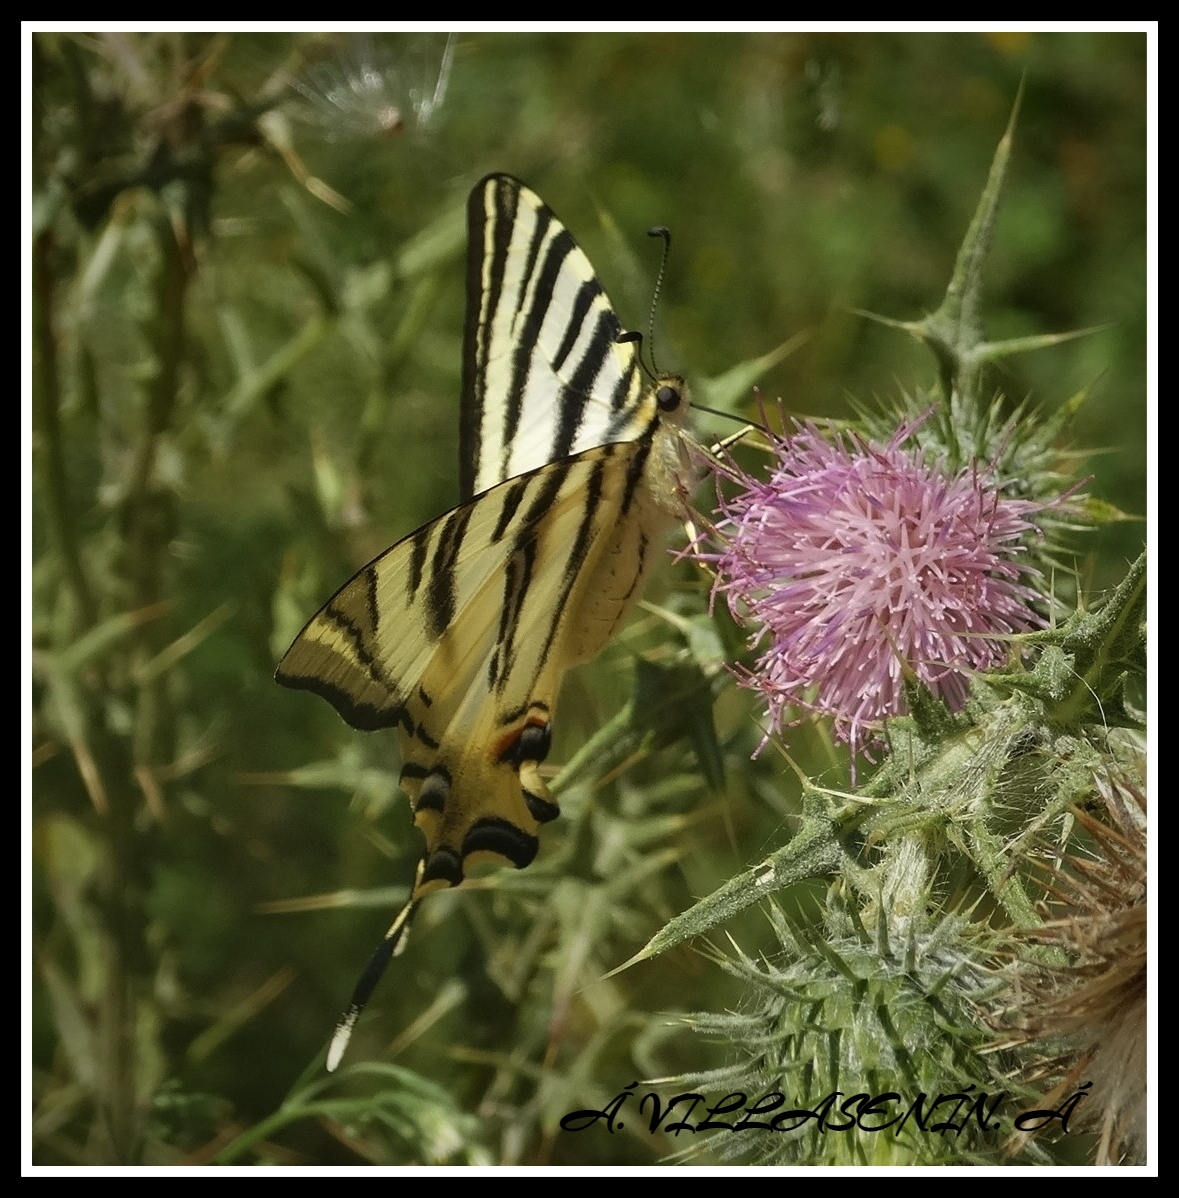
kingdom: Animalia
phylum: Arthropoda
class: Insecta
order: Lepidoptera
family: Papilionidae
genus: Iphiclides
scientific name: Iphiclides feisthamelii
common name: Iberian scarce swallowtail
